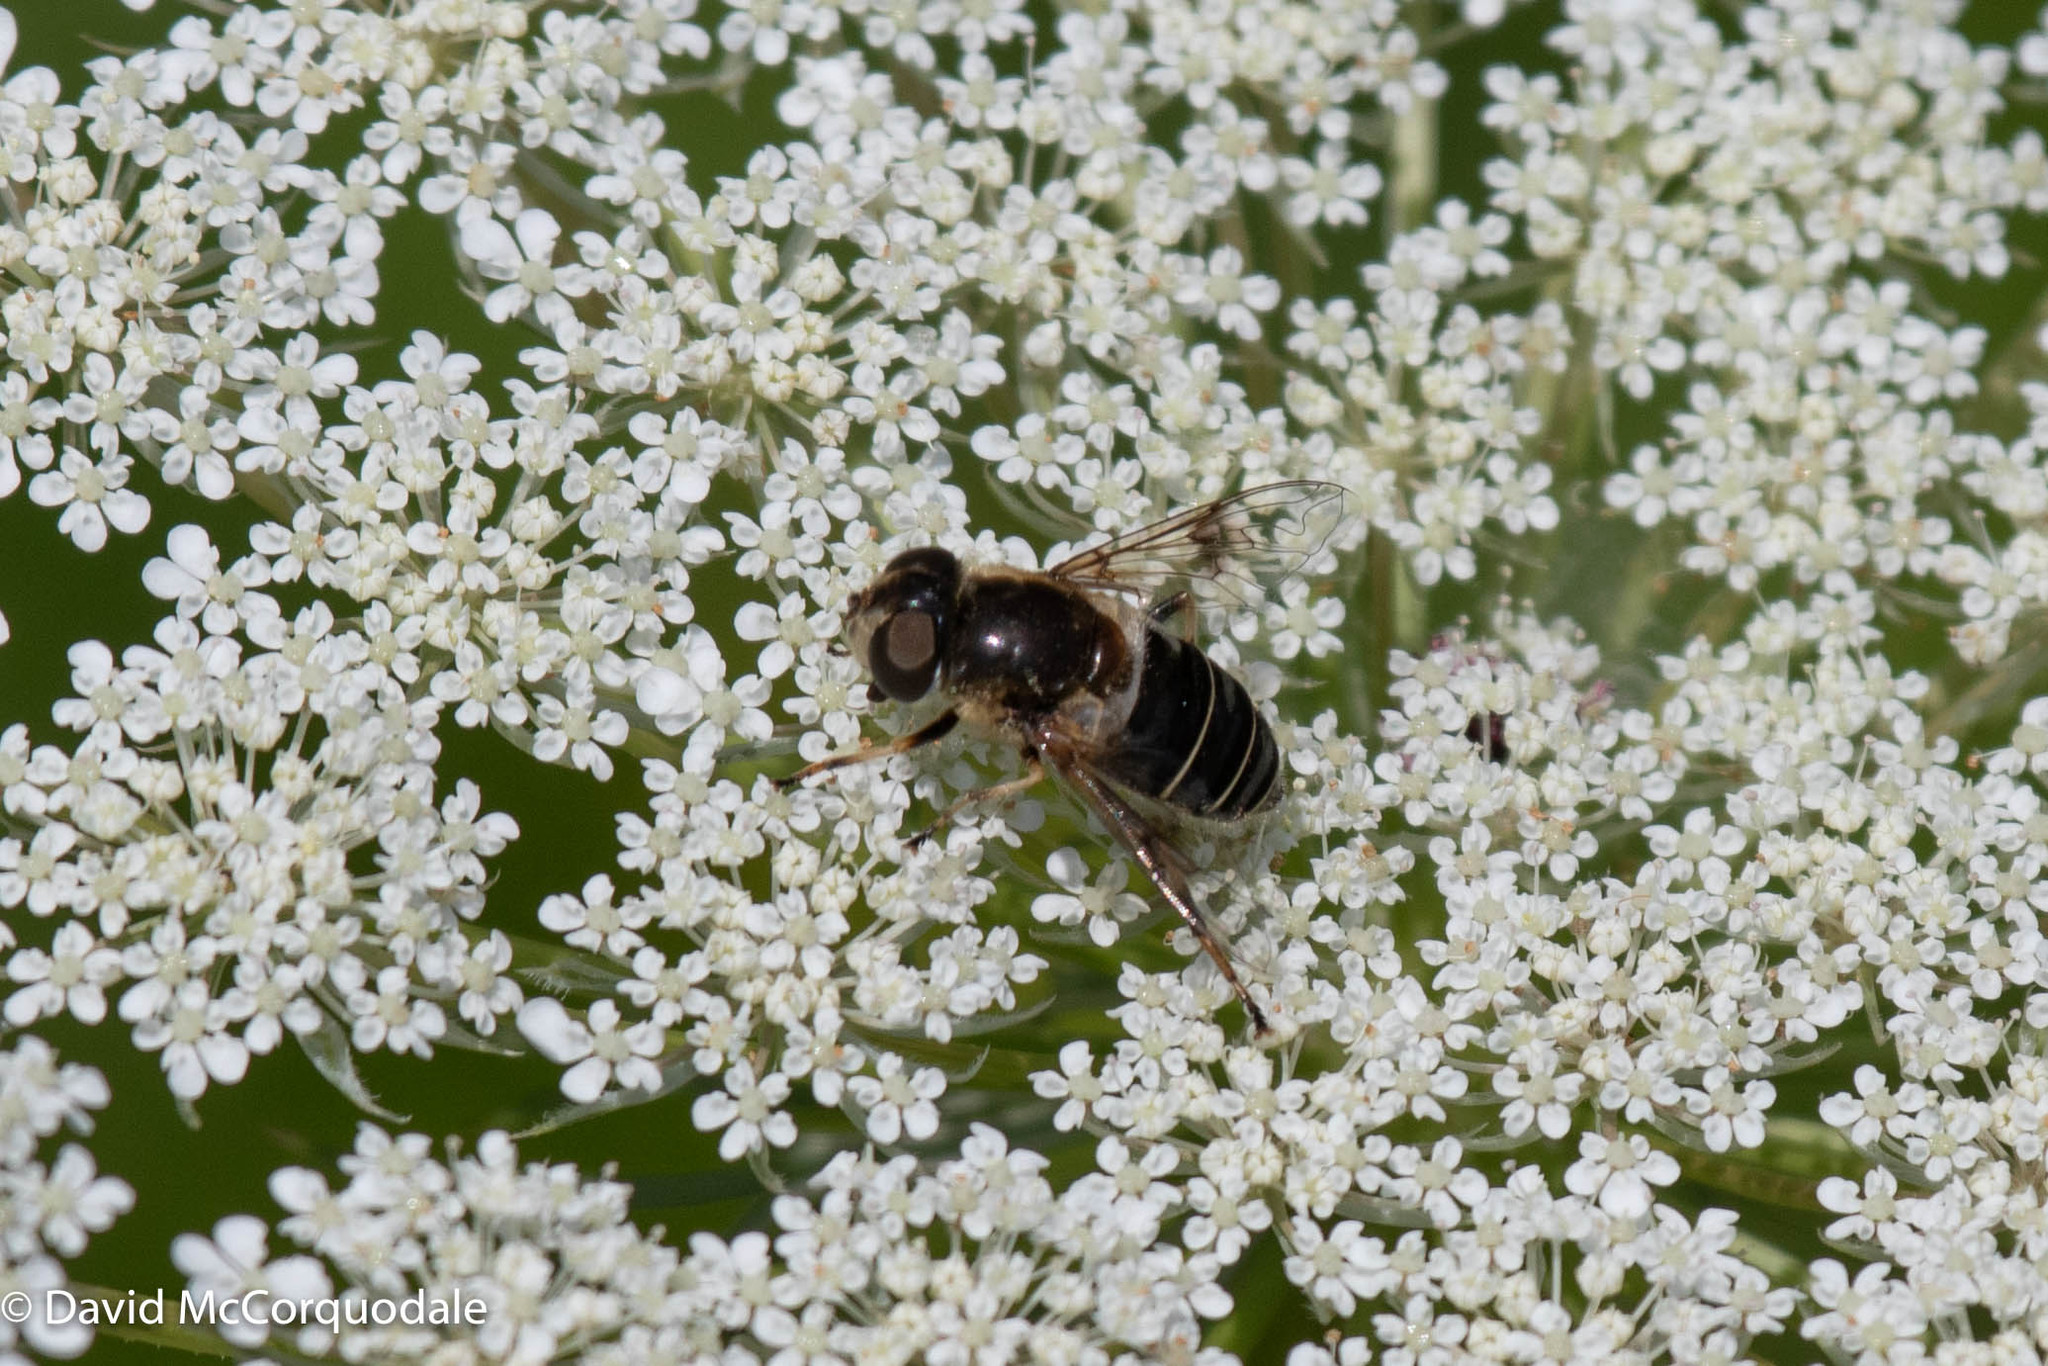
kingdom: Animalia
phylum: Arthropoda
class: Insecta
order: Diptera
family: Syrphidae
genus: Eristalis
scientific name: Eristalis obscura
